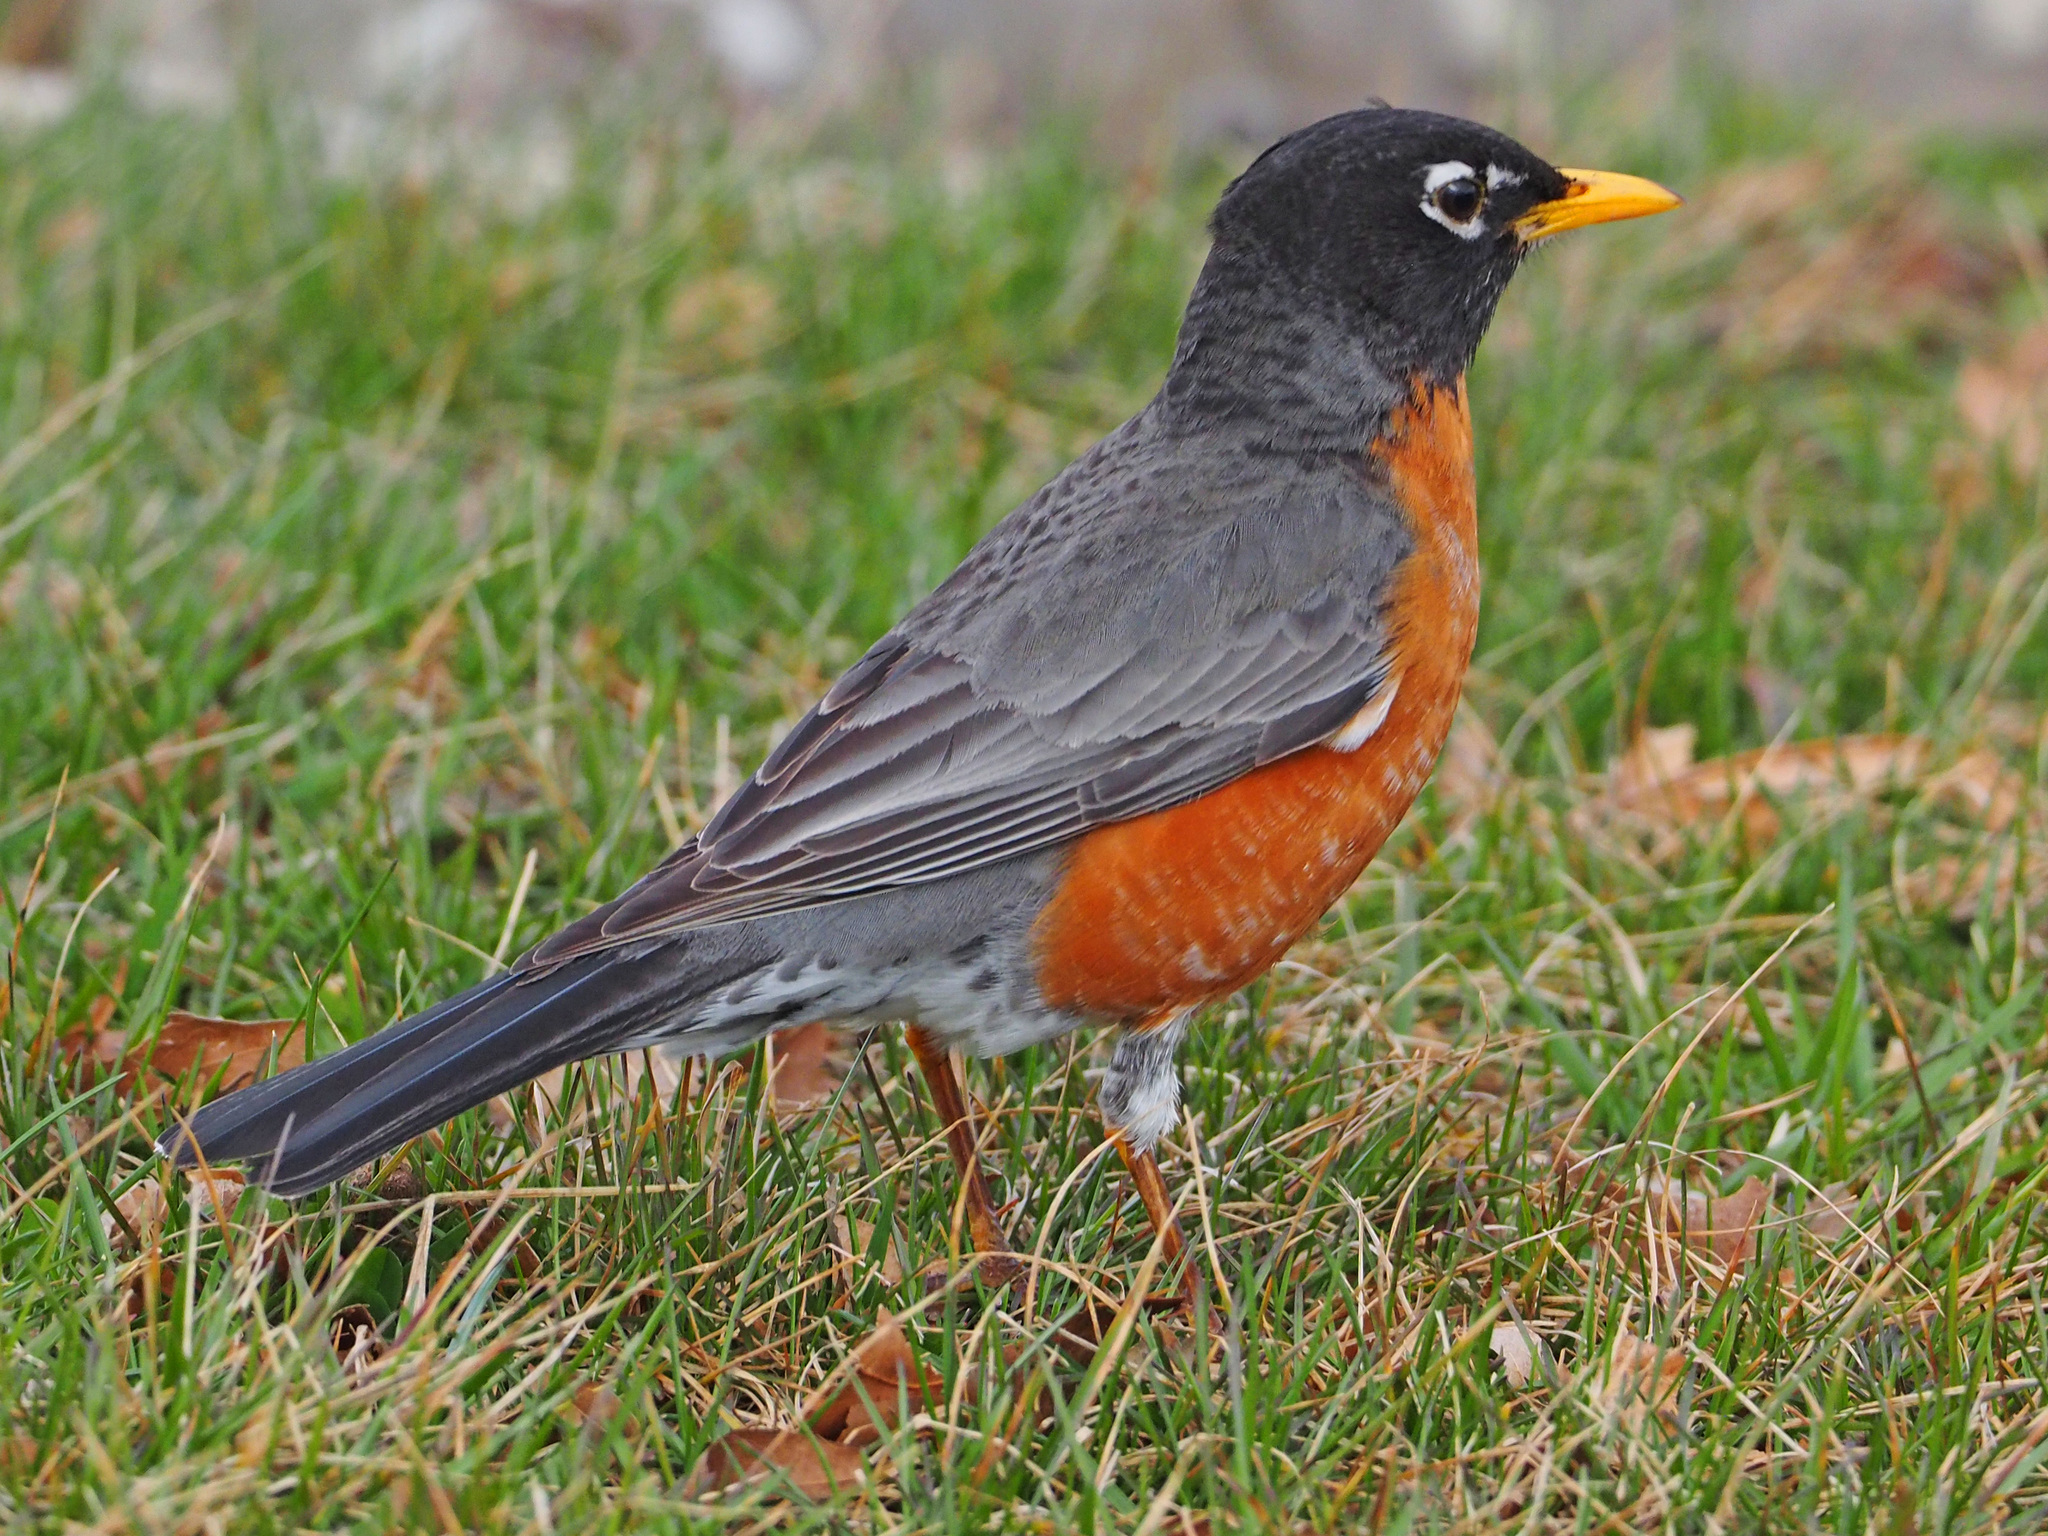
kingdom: Animalia
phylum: Chordata
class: Aves
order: Passeriformes
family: Turdidae
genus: Turdus
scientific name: Turdus migratorius
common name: American robin
